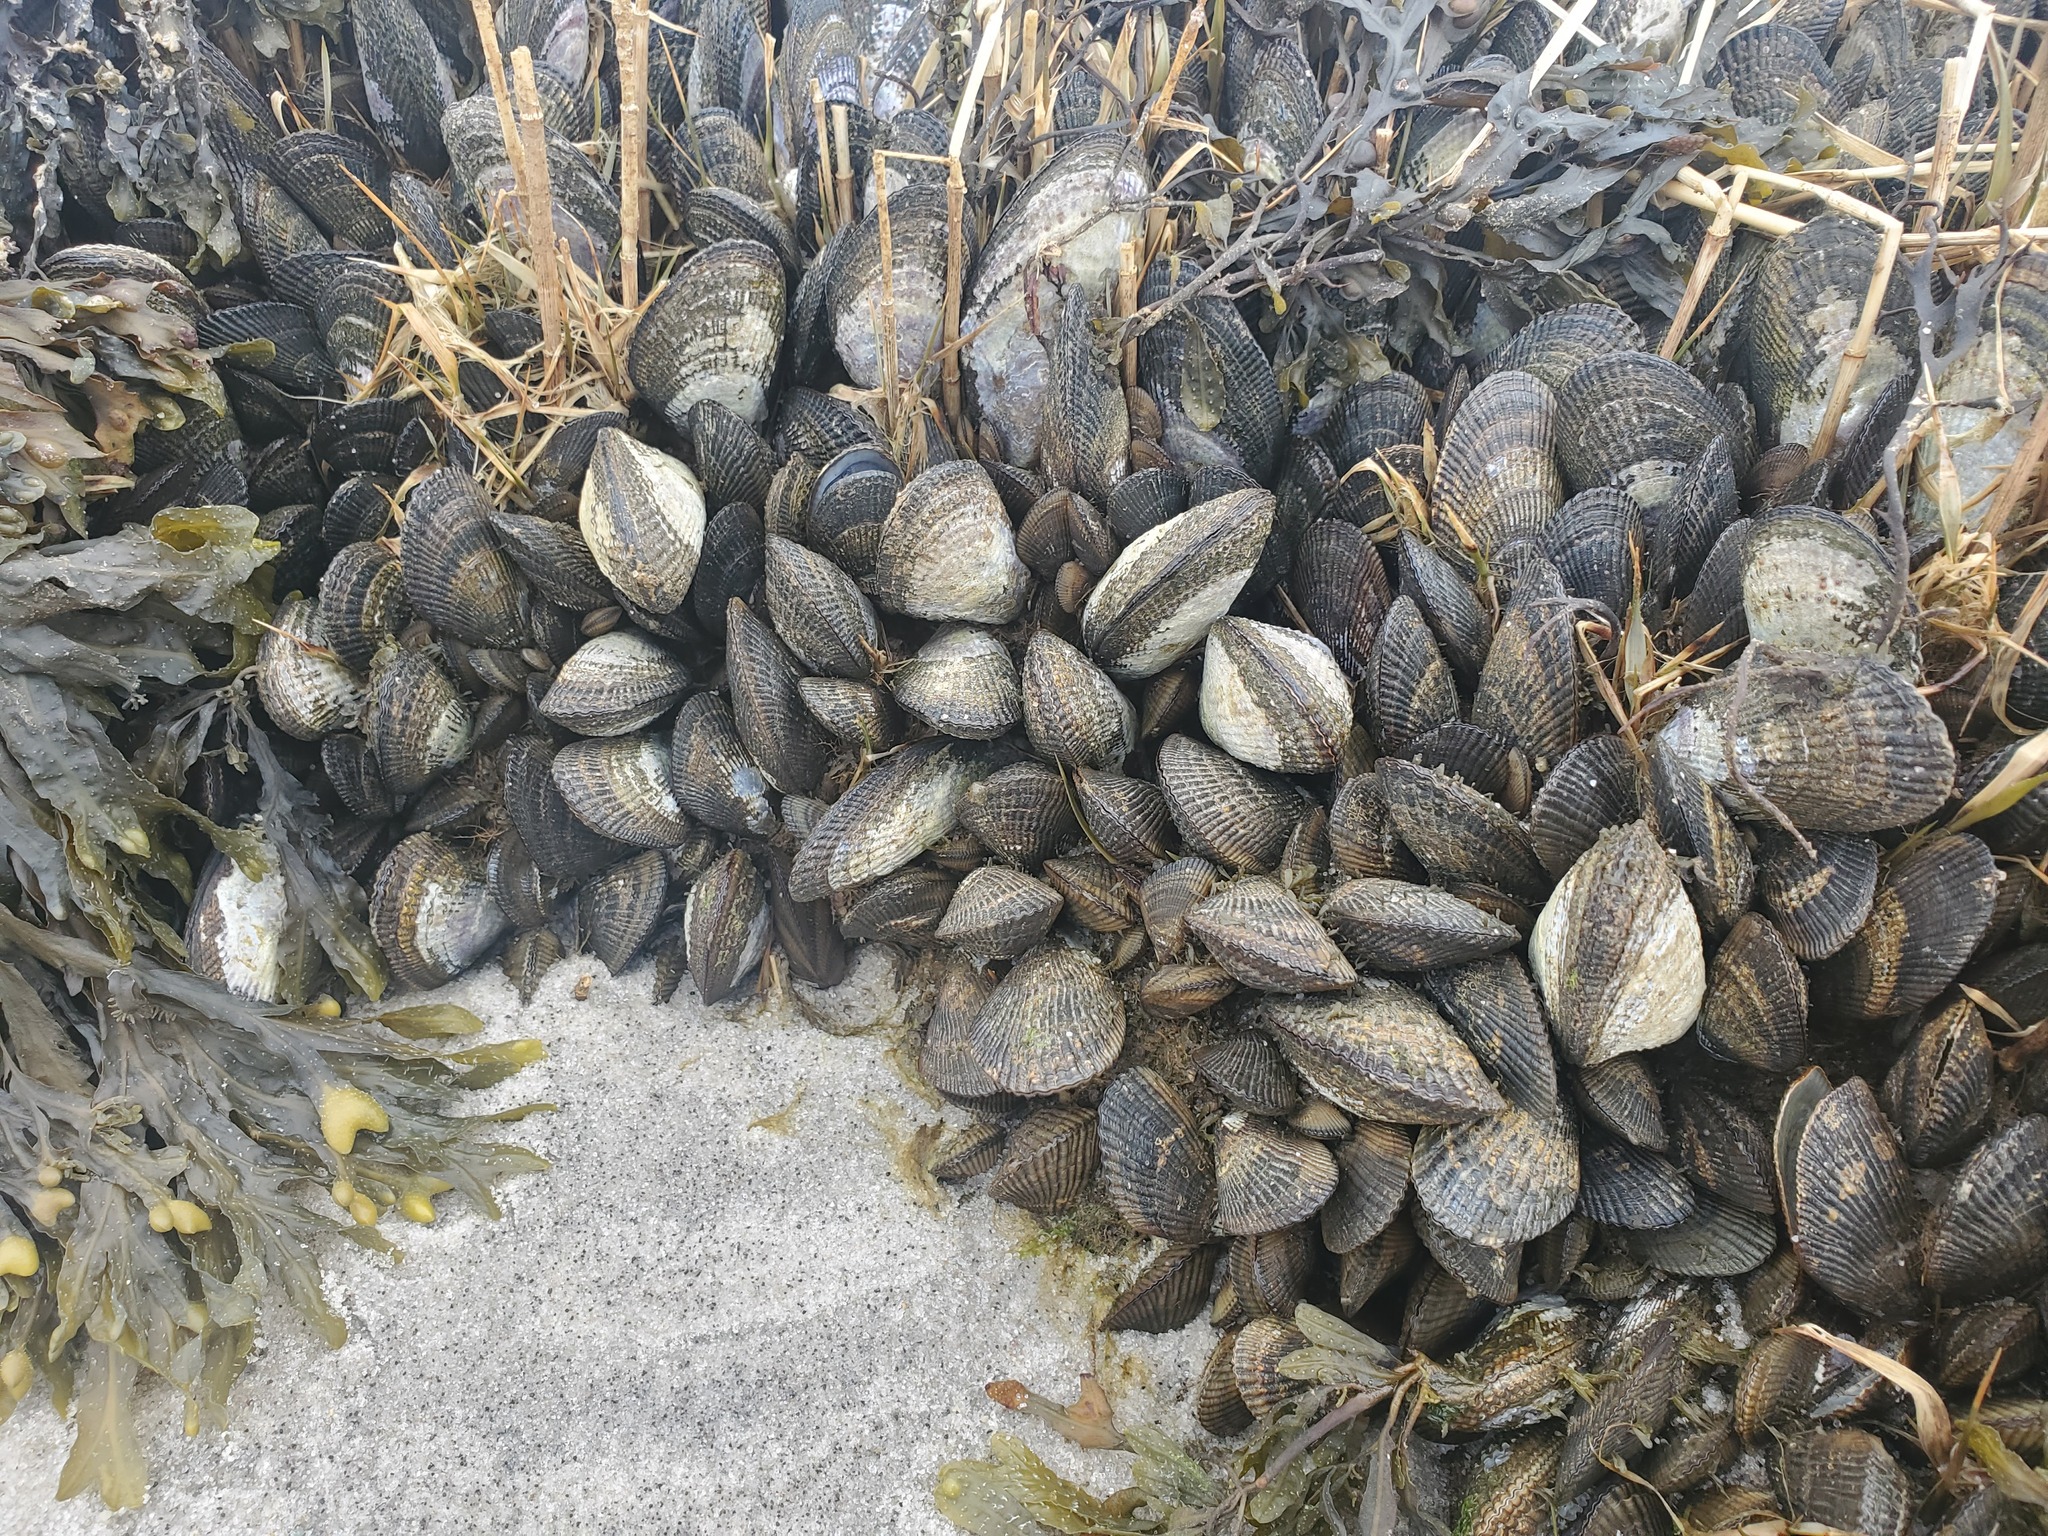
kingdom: Animalia
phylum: Mollusca
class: Bivalvia
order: Mytilida
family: Mytilidae
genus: Geukensia
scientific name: Geukensia demissa
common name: Ribbed mussel
